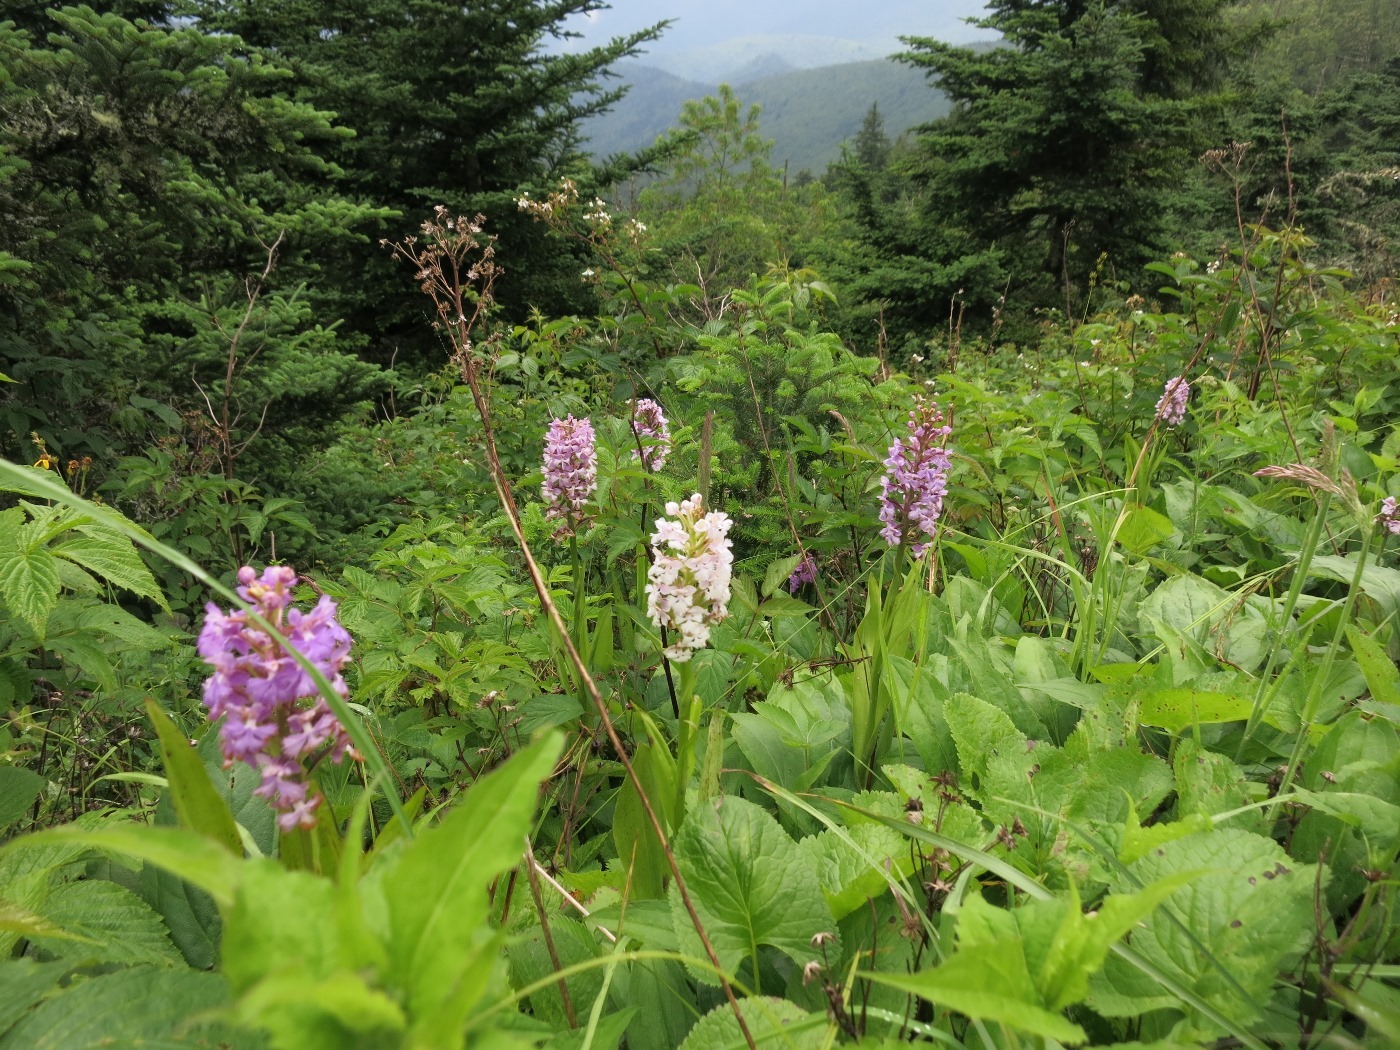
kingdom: Plantae
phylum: Tracheophyta
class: Liliopsida
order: Asparagales
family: Orchidaceae
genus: Platanthera
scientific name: Platanthera psycodes
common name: Lesser purple fringed orchid
